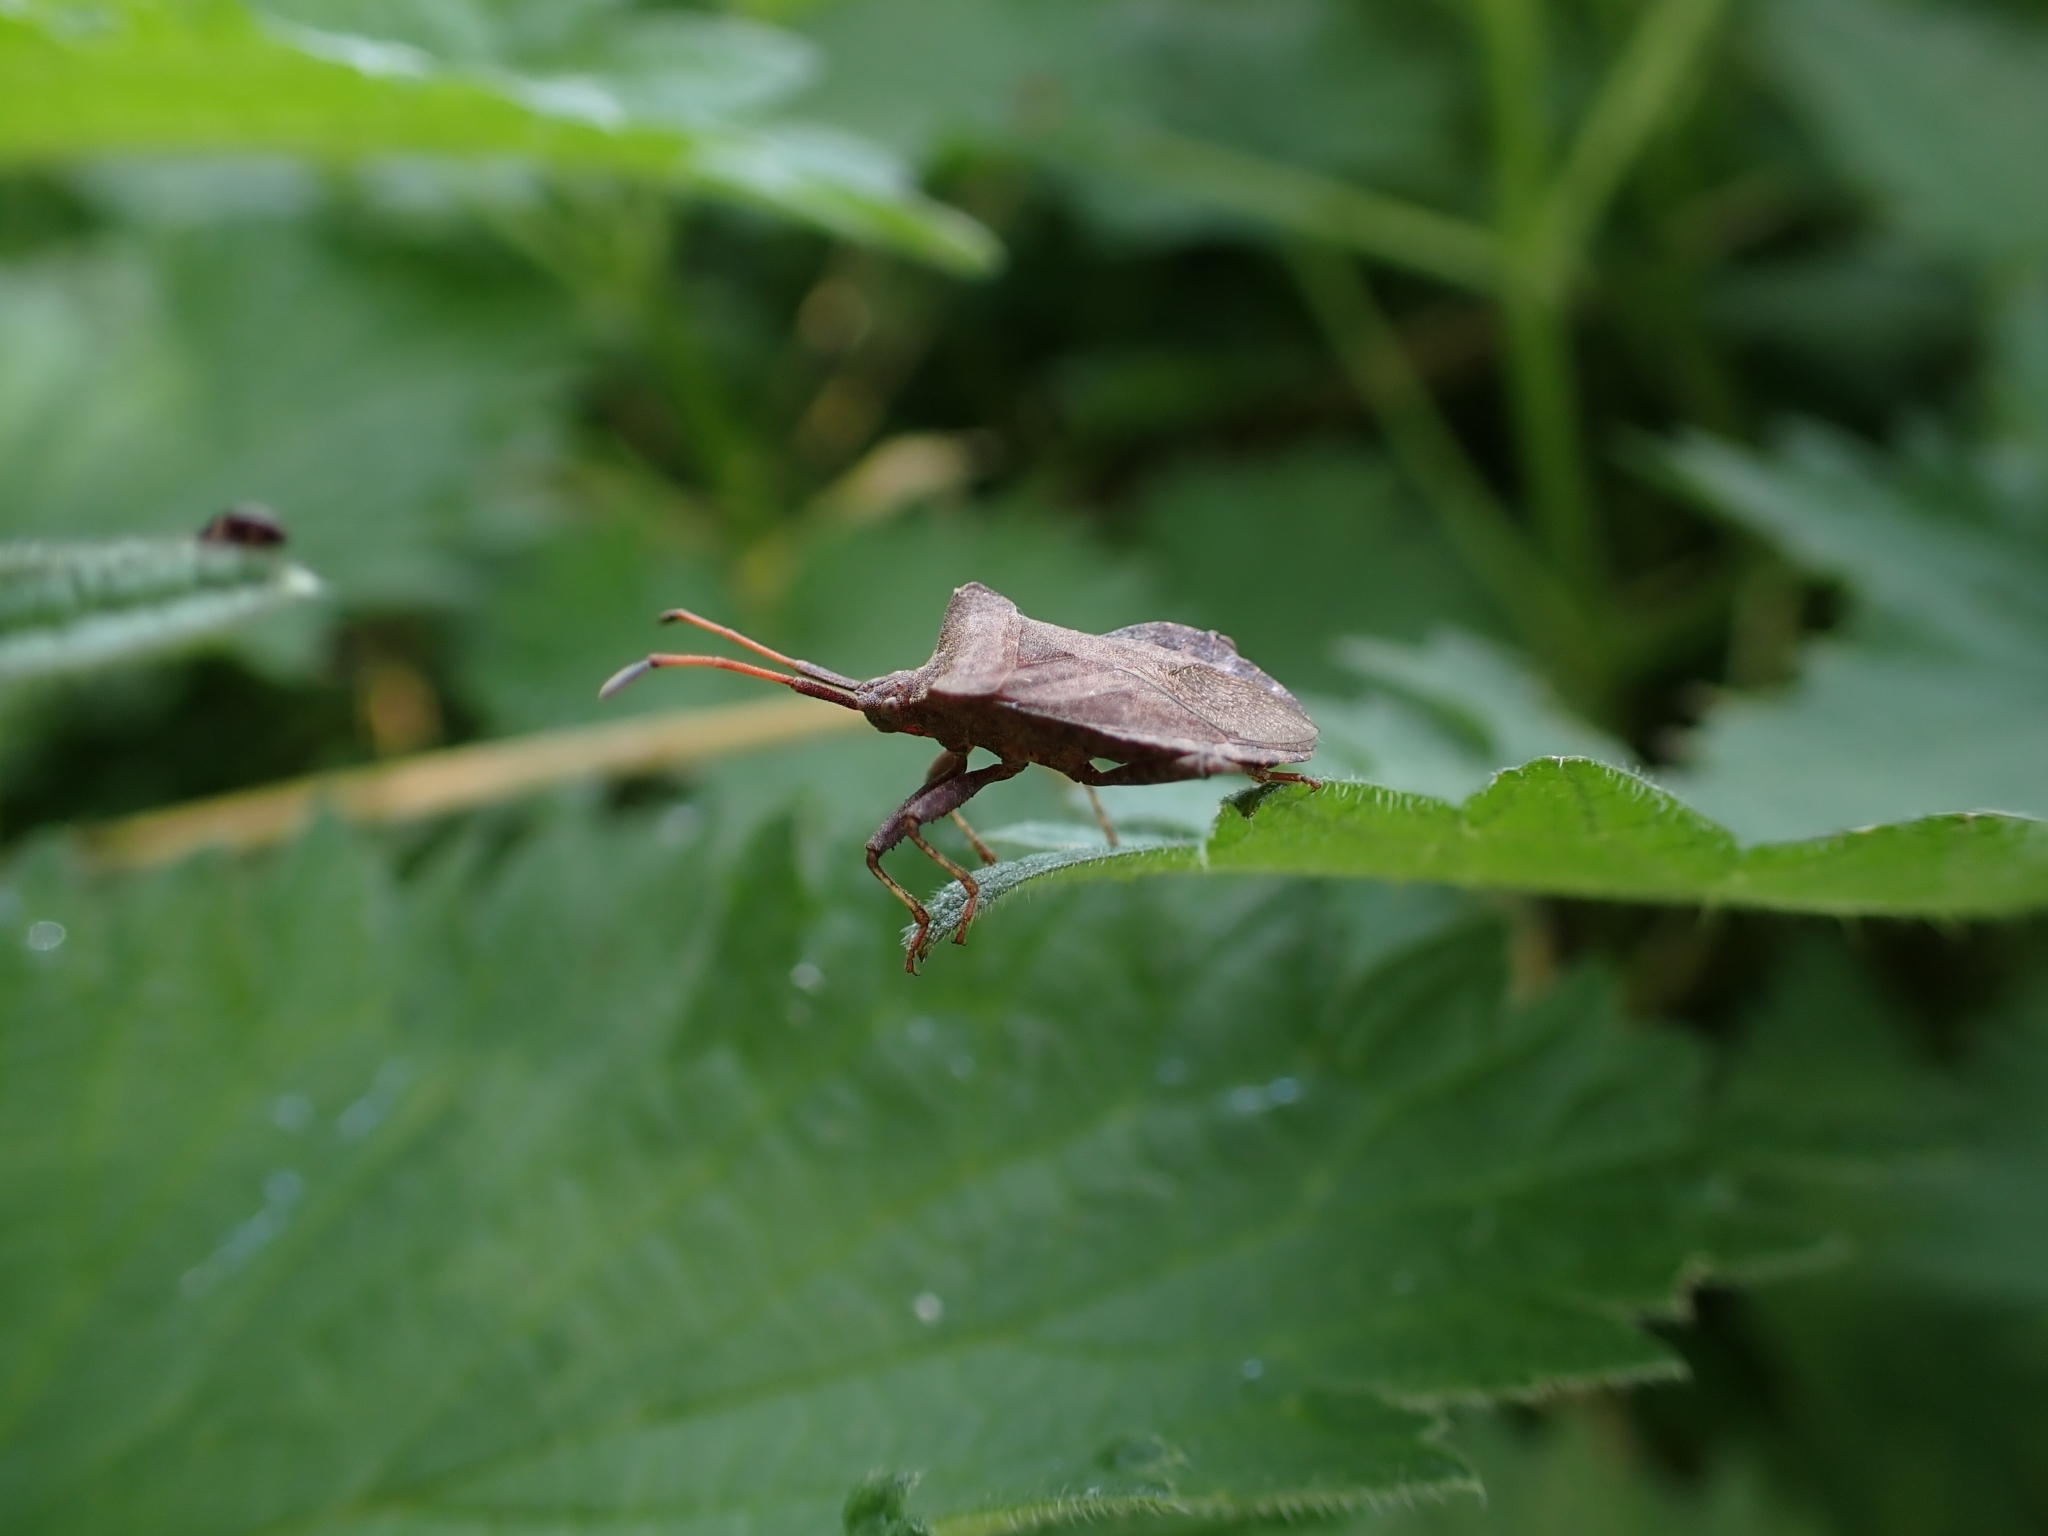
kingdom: Animalia
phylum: Arthropoda
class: Insecta
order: Hemiptera
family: Coreidae
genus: Coreus
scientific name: Coreus marginatus
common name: Dock bug
